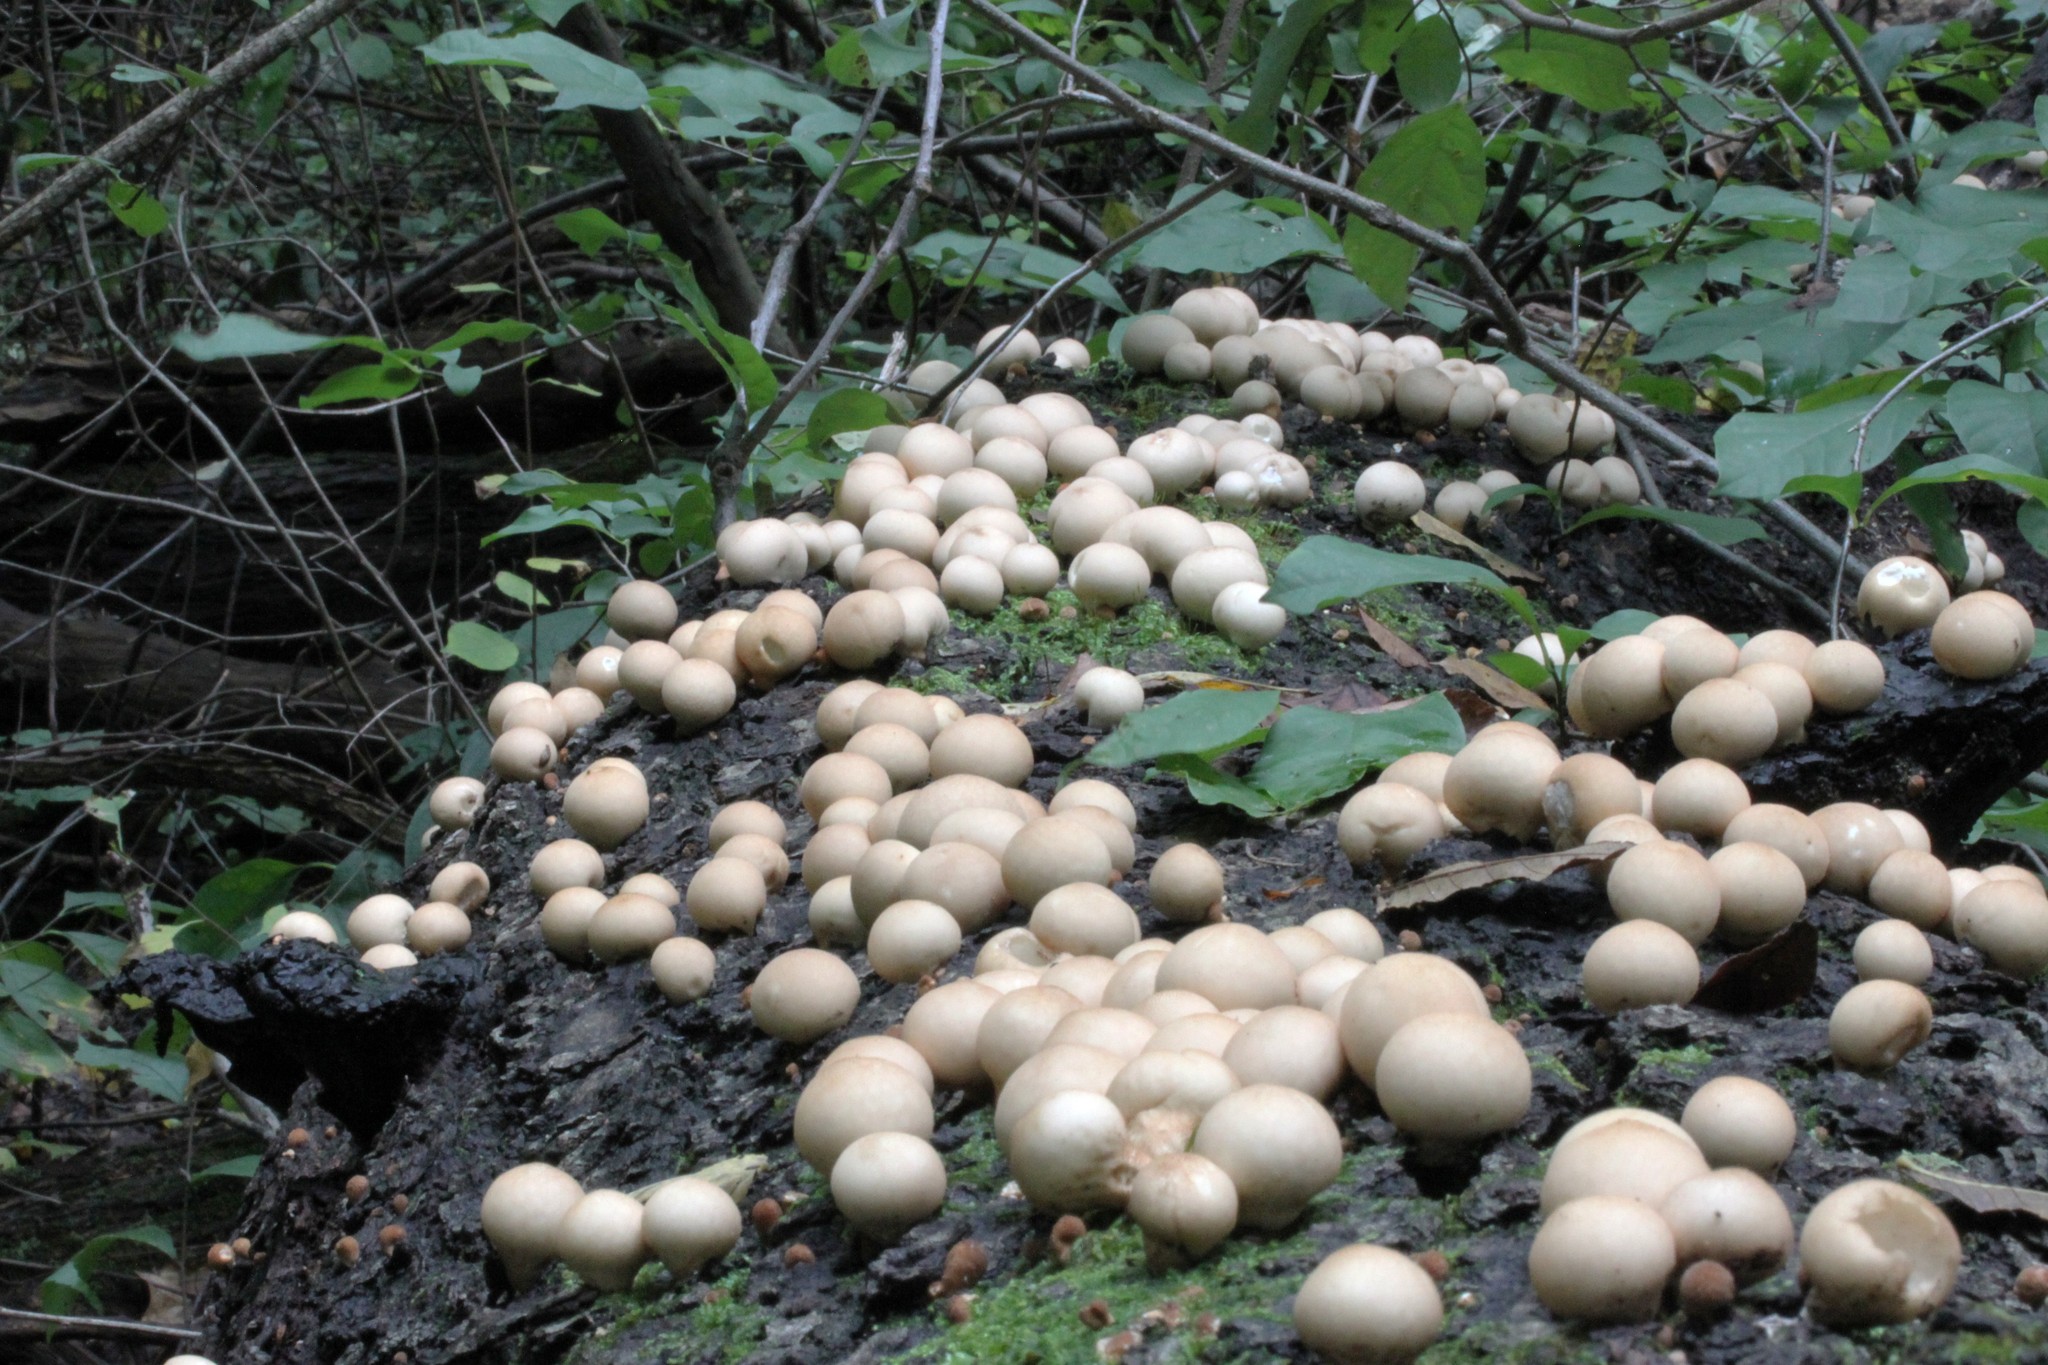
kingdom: Fungi
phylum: Basidiomycota
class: Agaricomycetes
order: Agaricales
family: Lycoperdaceae
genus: Apioperdon
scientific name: Apioperdon pyriforme
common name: Pear-shaped puffball
